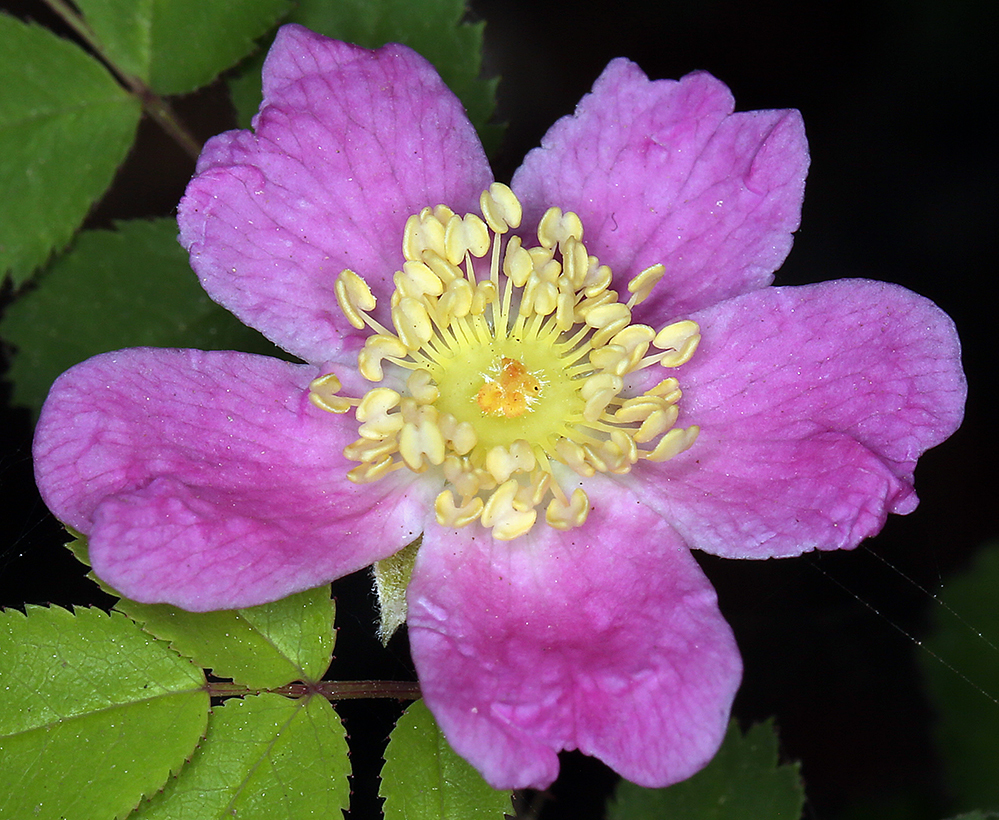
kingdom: Plantae
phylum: Tracheophyta
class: Magnoliopsida
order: Rosales
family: Rosaceae
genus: Rosa
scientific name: Rosa gymnocarpa
